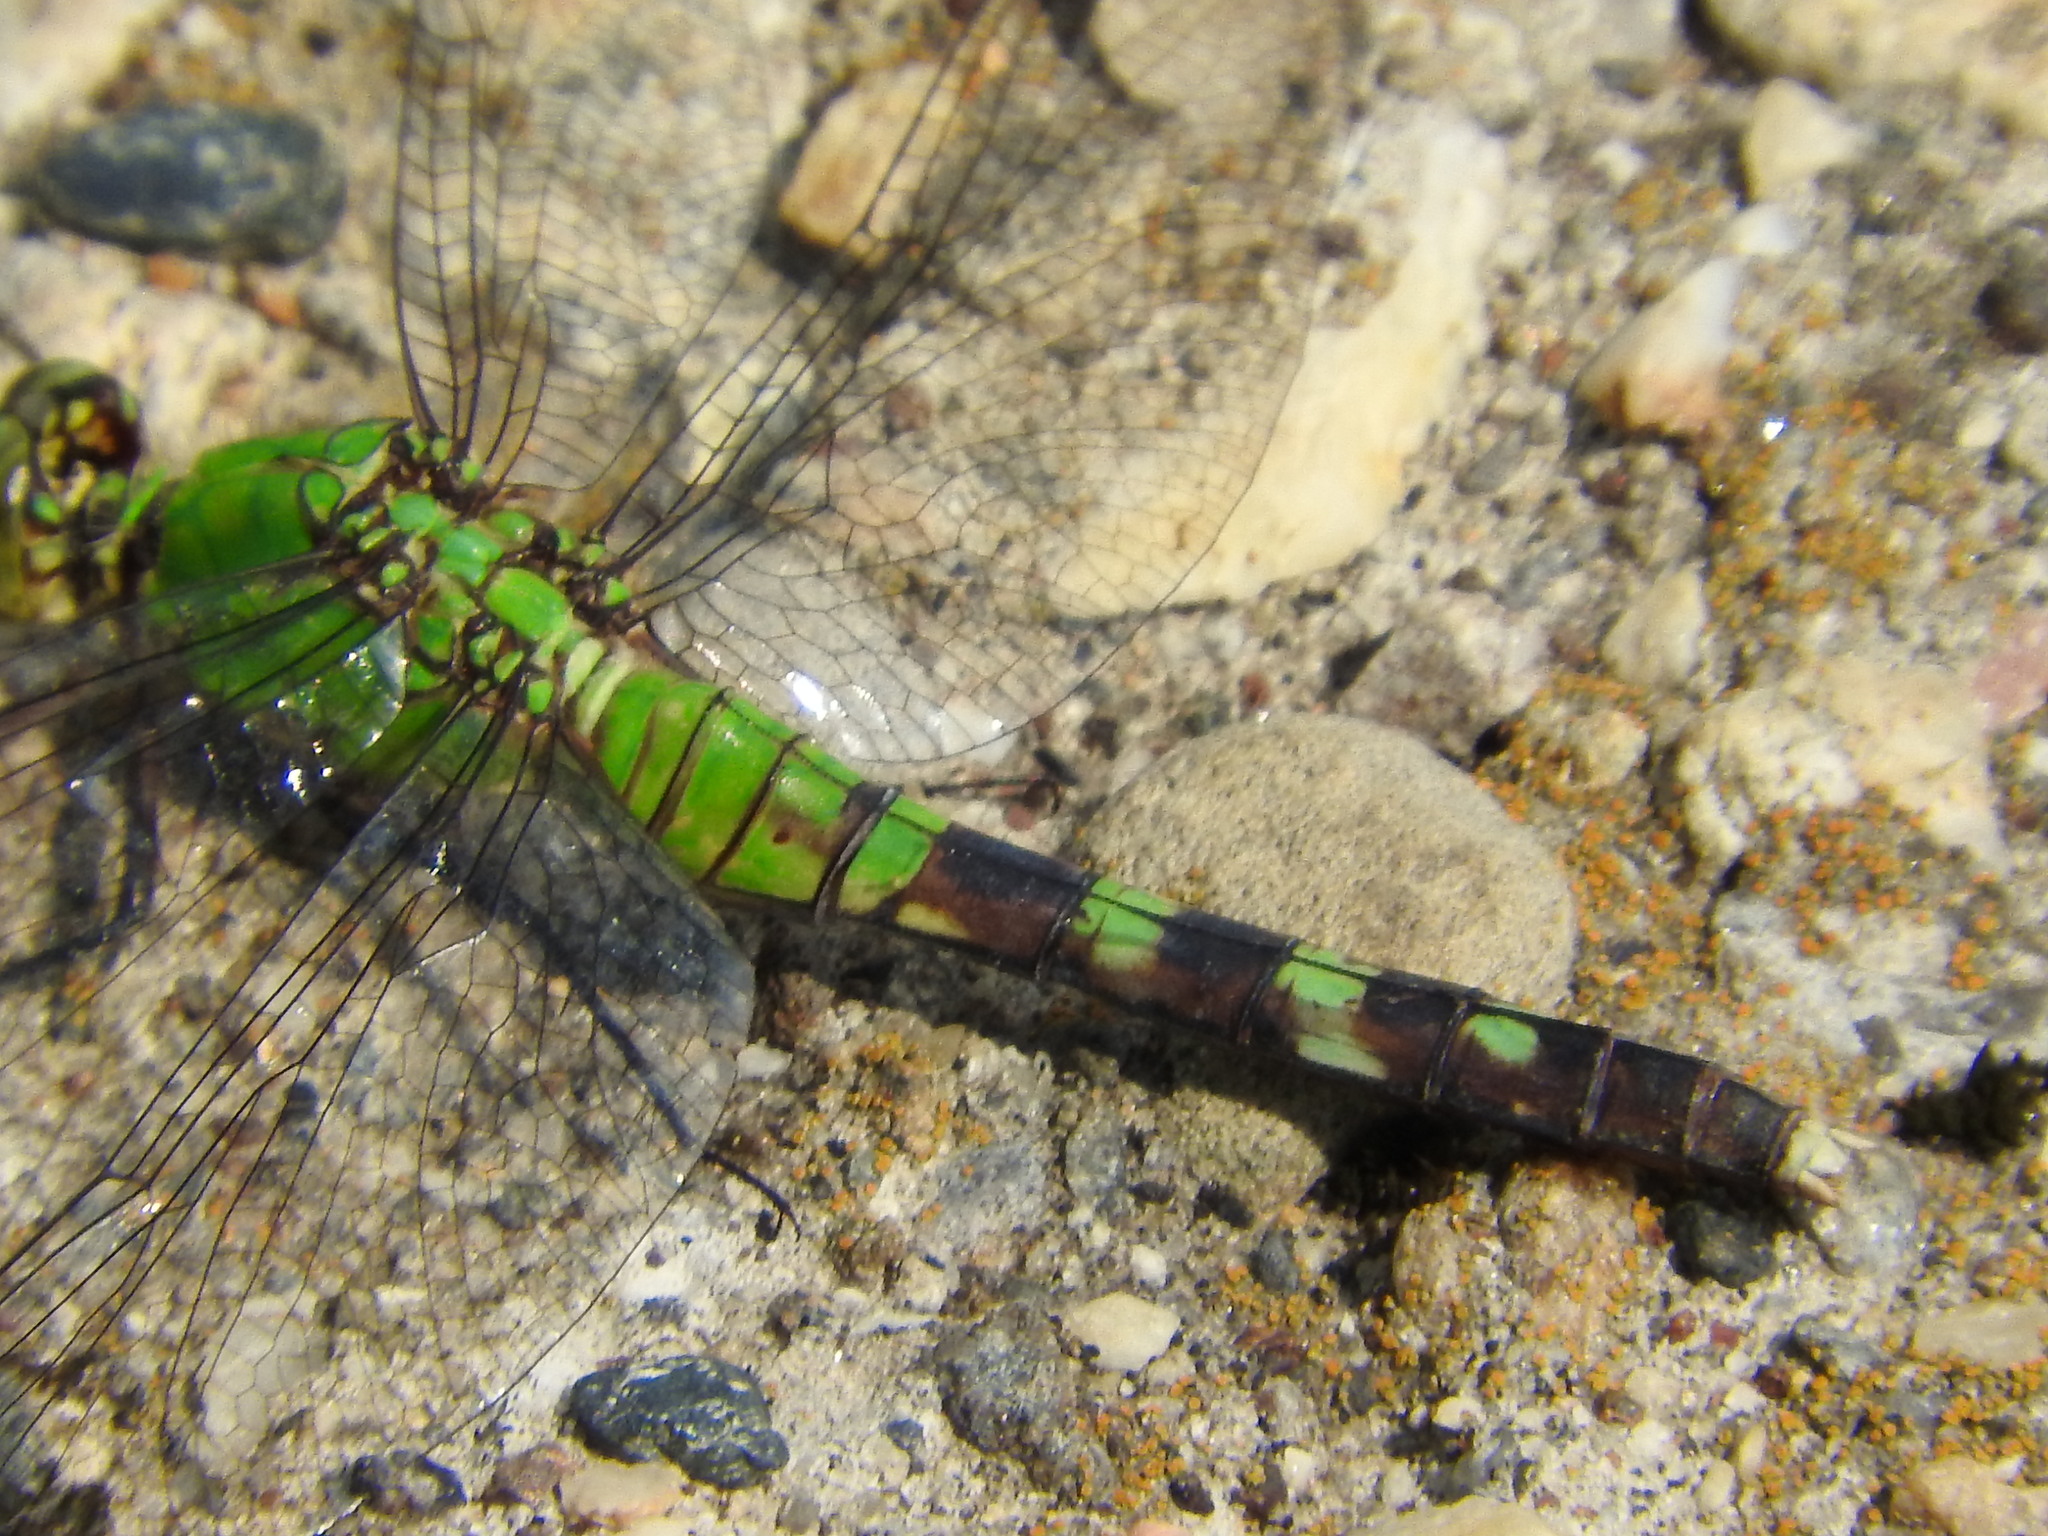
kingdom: Animalia
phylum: Arthropoda
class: Insecta
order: Odonata
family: Libellulidae
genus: Erythemis
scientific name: Erythemis simplicicollis
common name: Eastern pondhawk
